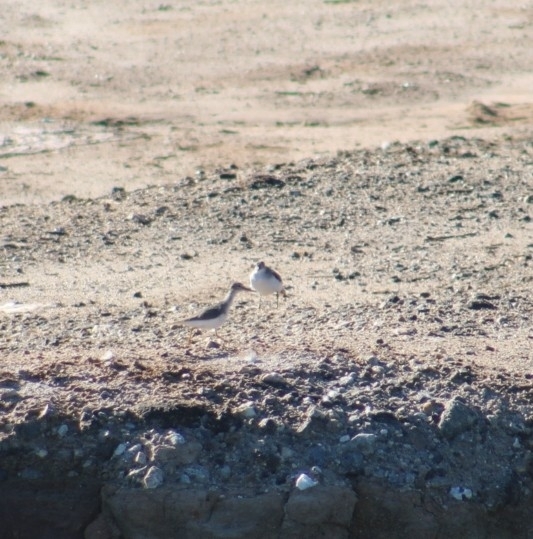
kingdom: Animalia
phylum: Chordata
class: Aves
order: Charadriiformes
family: Scolopacidae
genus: Actitis
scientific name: Actitis macularius
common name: Spotted sandpiper
